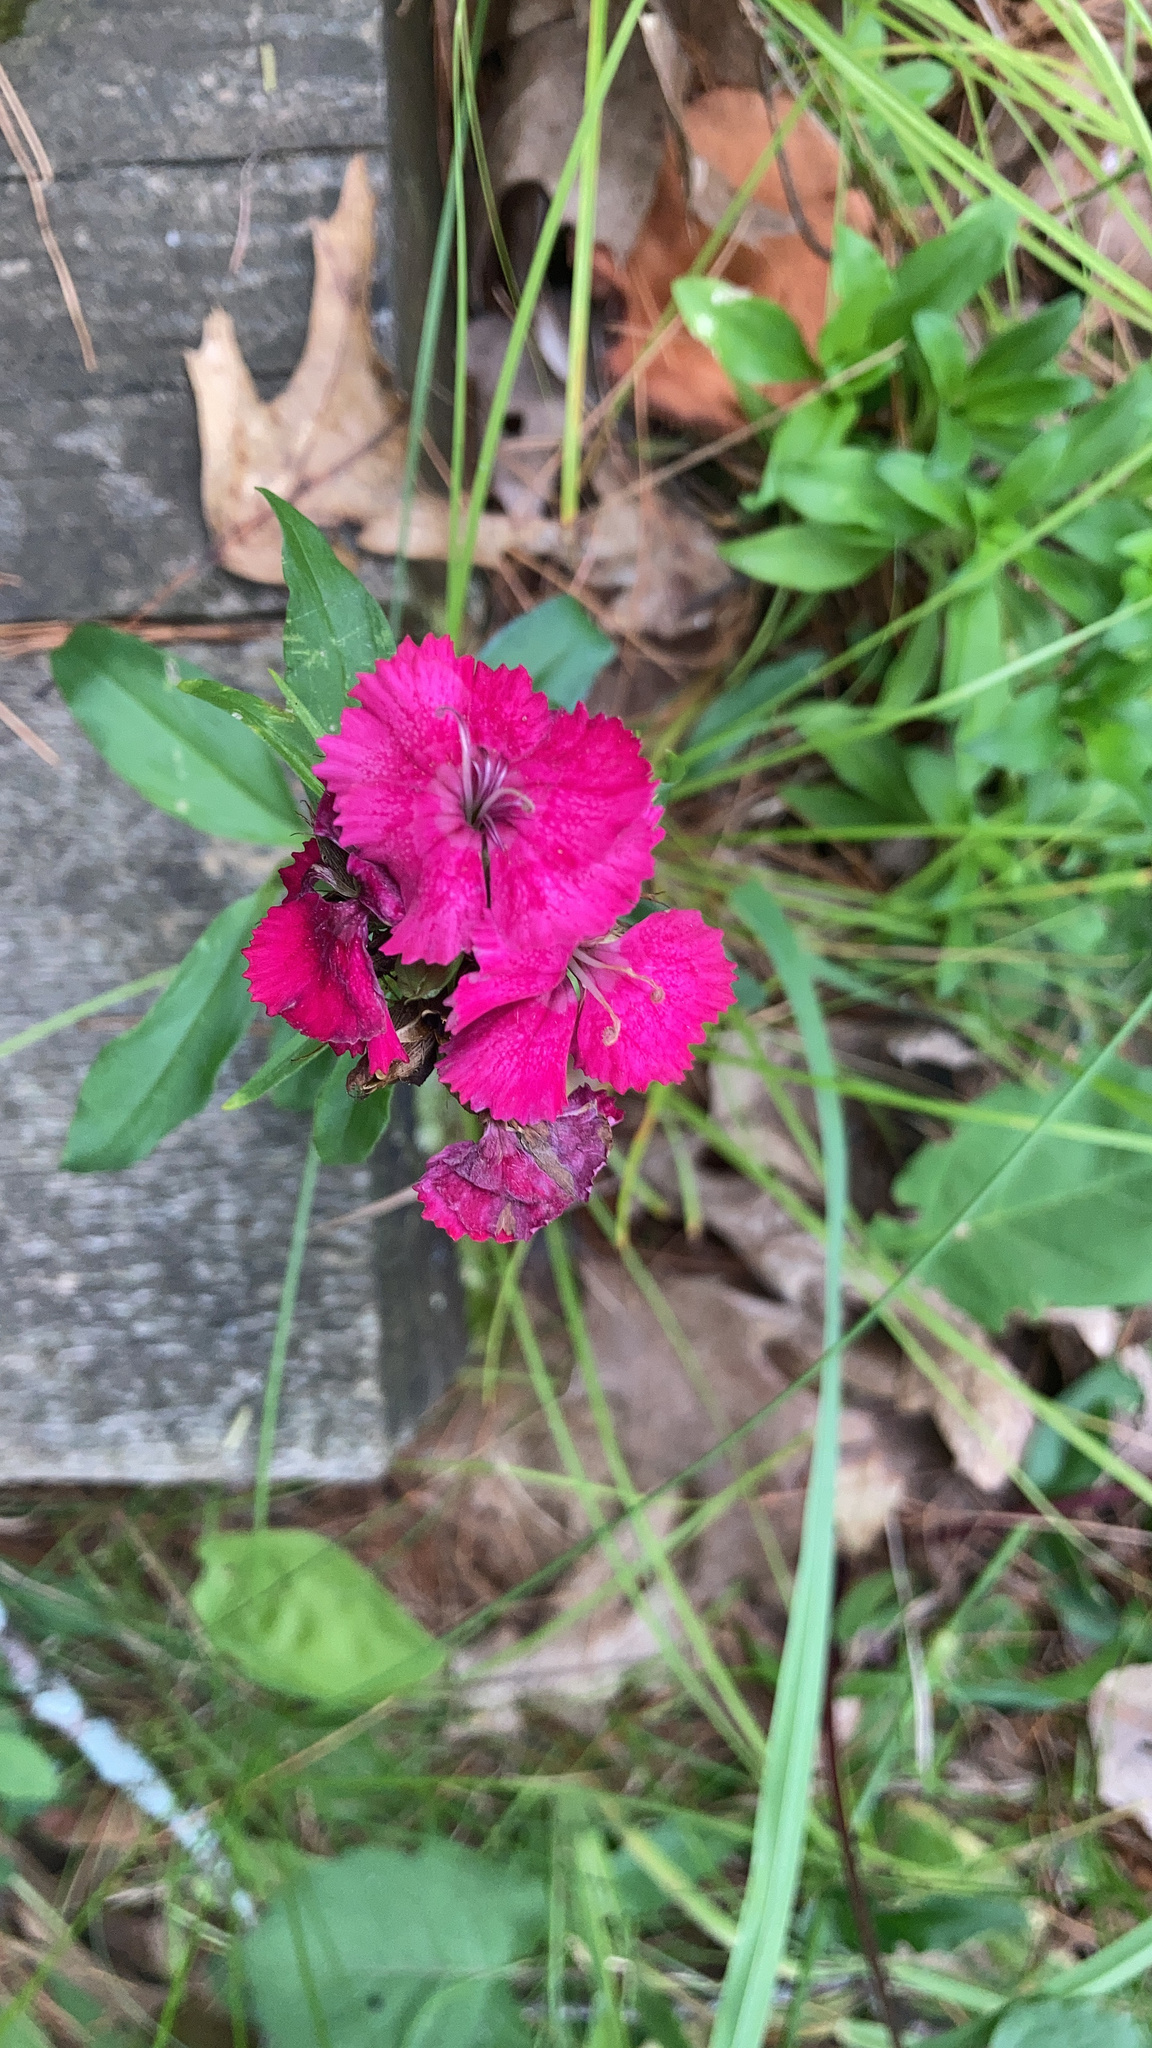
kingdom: Plantae
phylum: Tracheophyta
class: Magnoliopsida
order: Caryophyllales
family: Caryophyllaceae
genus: Dianthus
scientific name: Dianthus barbatus
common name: Sweet-william
